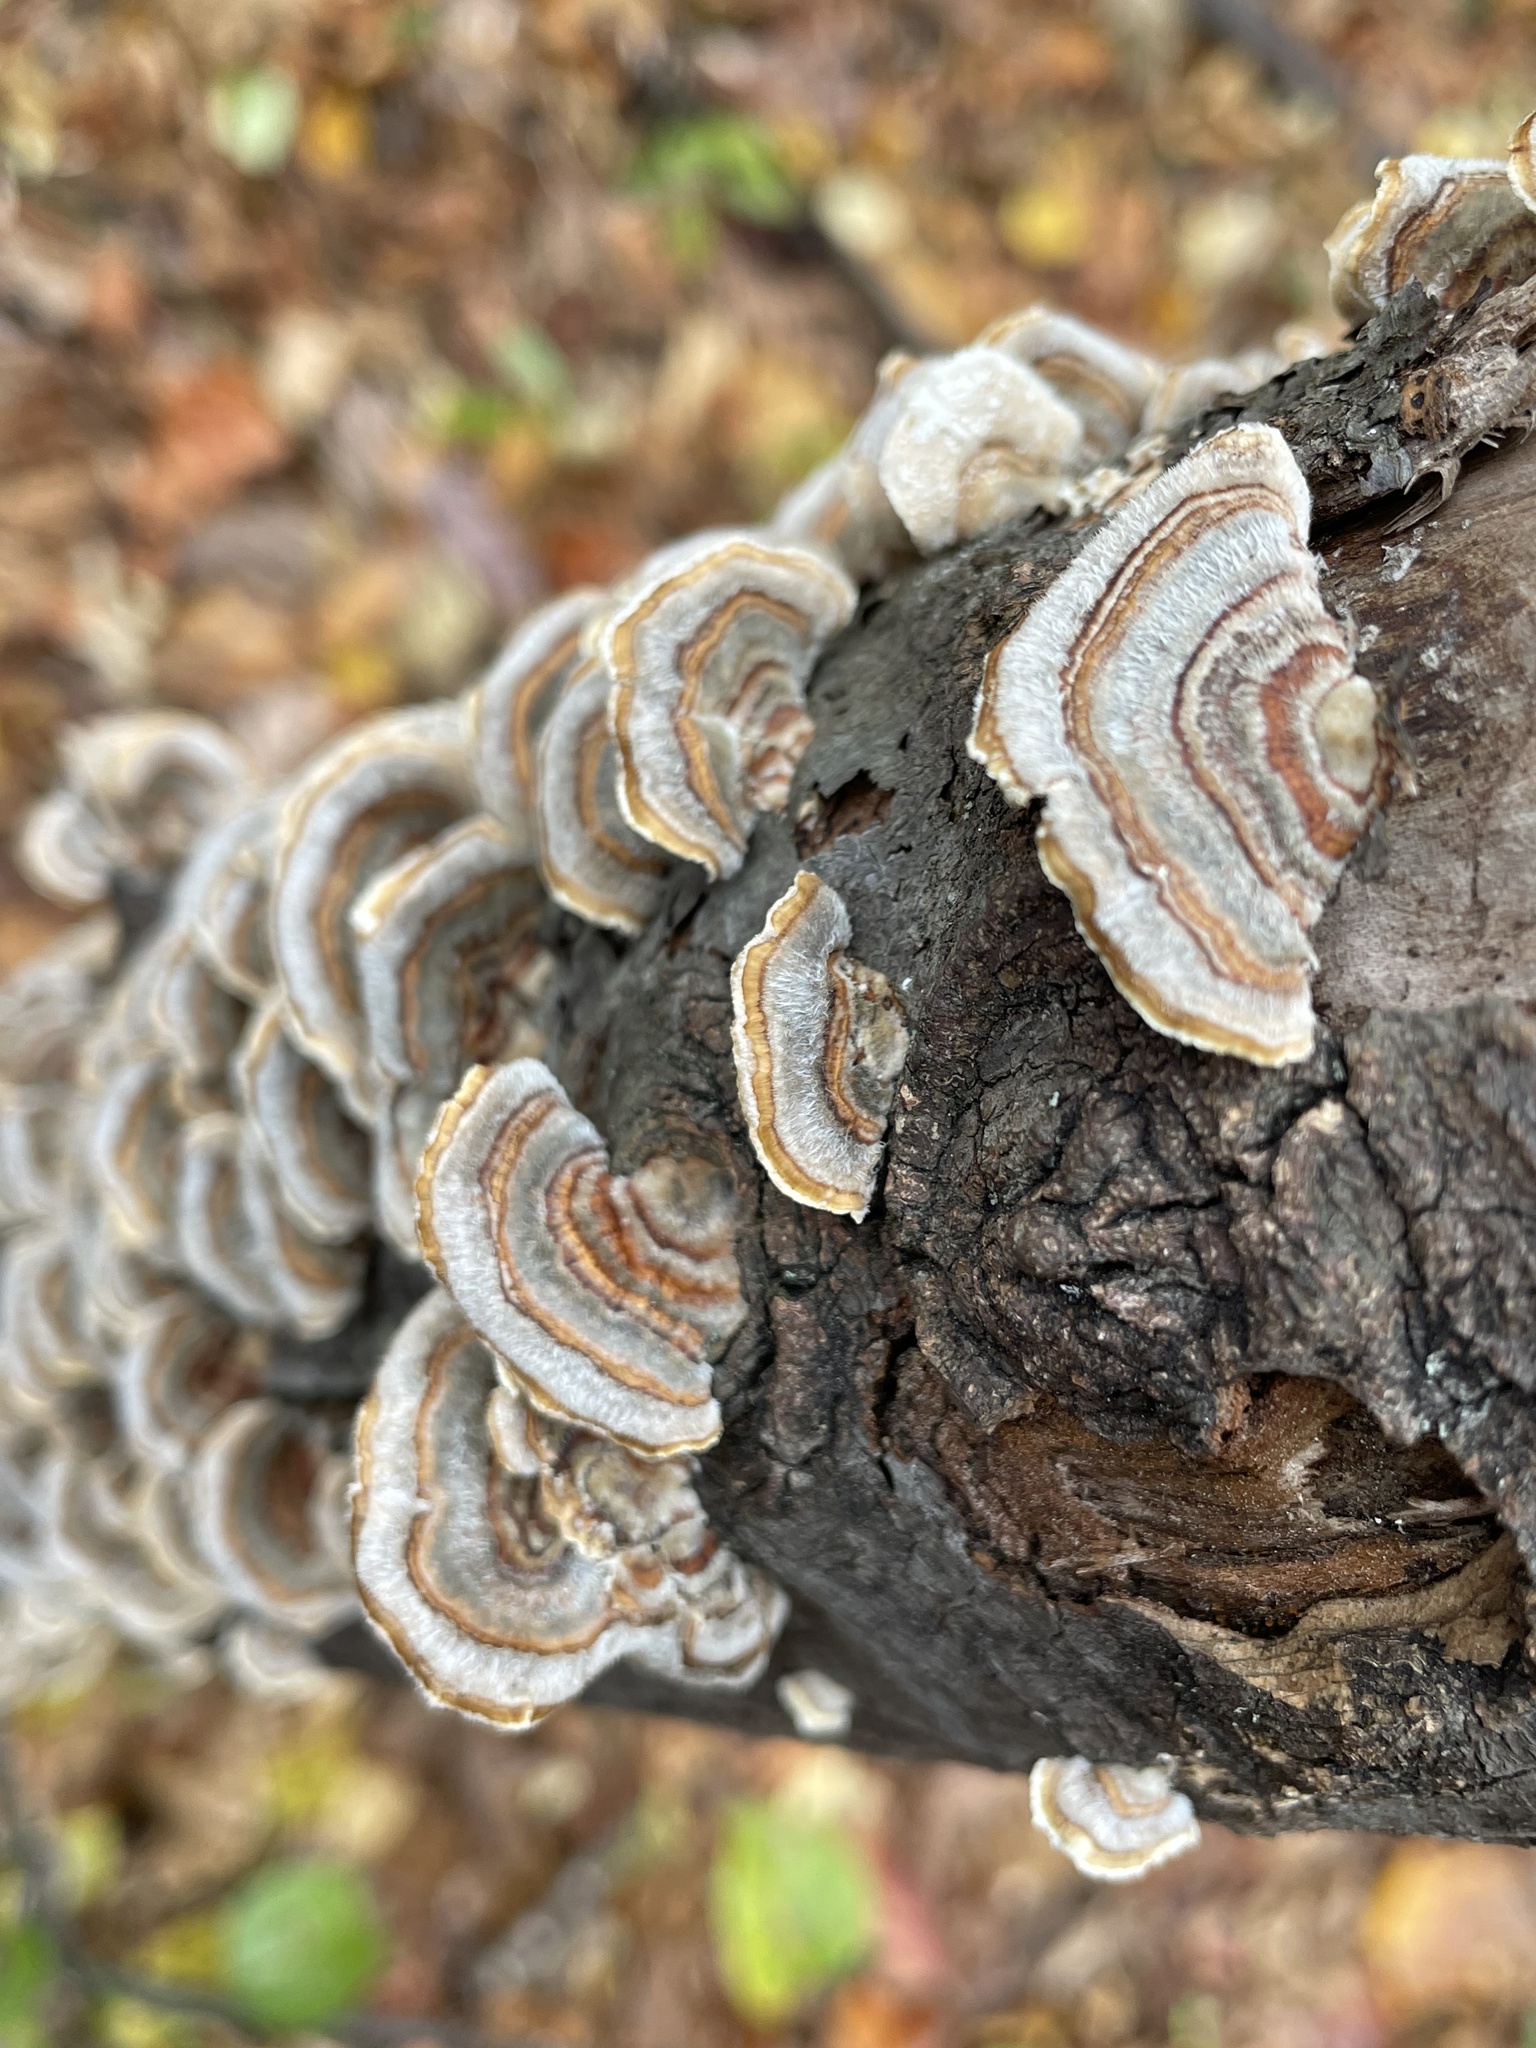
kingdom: Fungi
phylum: Basidiomycota
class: Agaricomycetes
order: Polyporales
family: Polyporaceae
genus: Trametes
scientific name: Trametes versicolor
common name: Turkeytail
